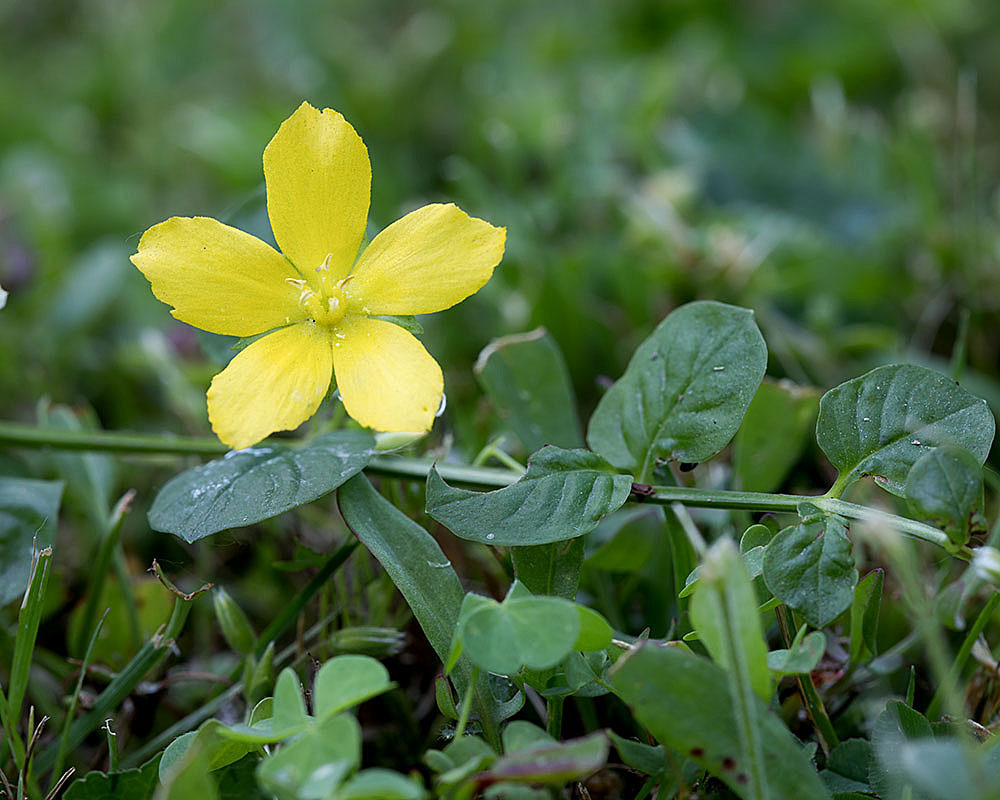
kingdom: Plantae
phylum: Tracheophyta
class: Magnoliopsida
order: Ericales
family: Primulaceae
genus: Lysimachia
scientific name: Lysimachia nummularia
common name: Moneywort
